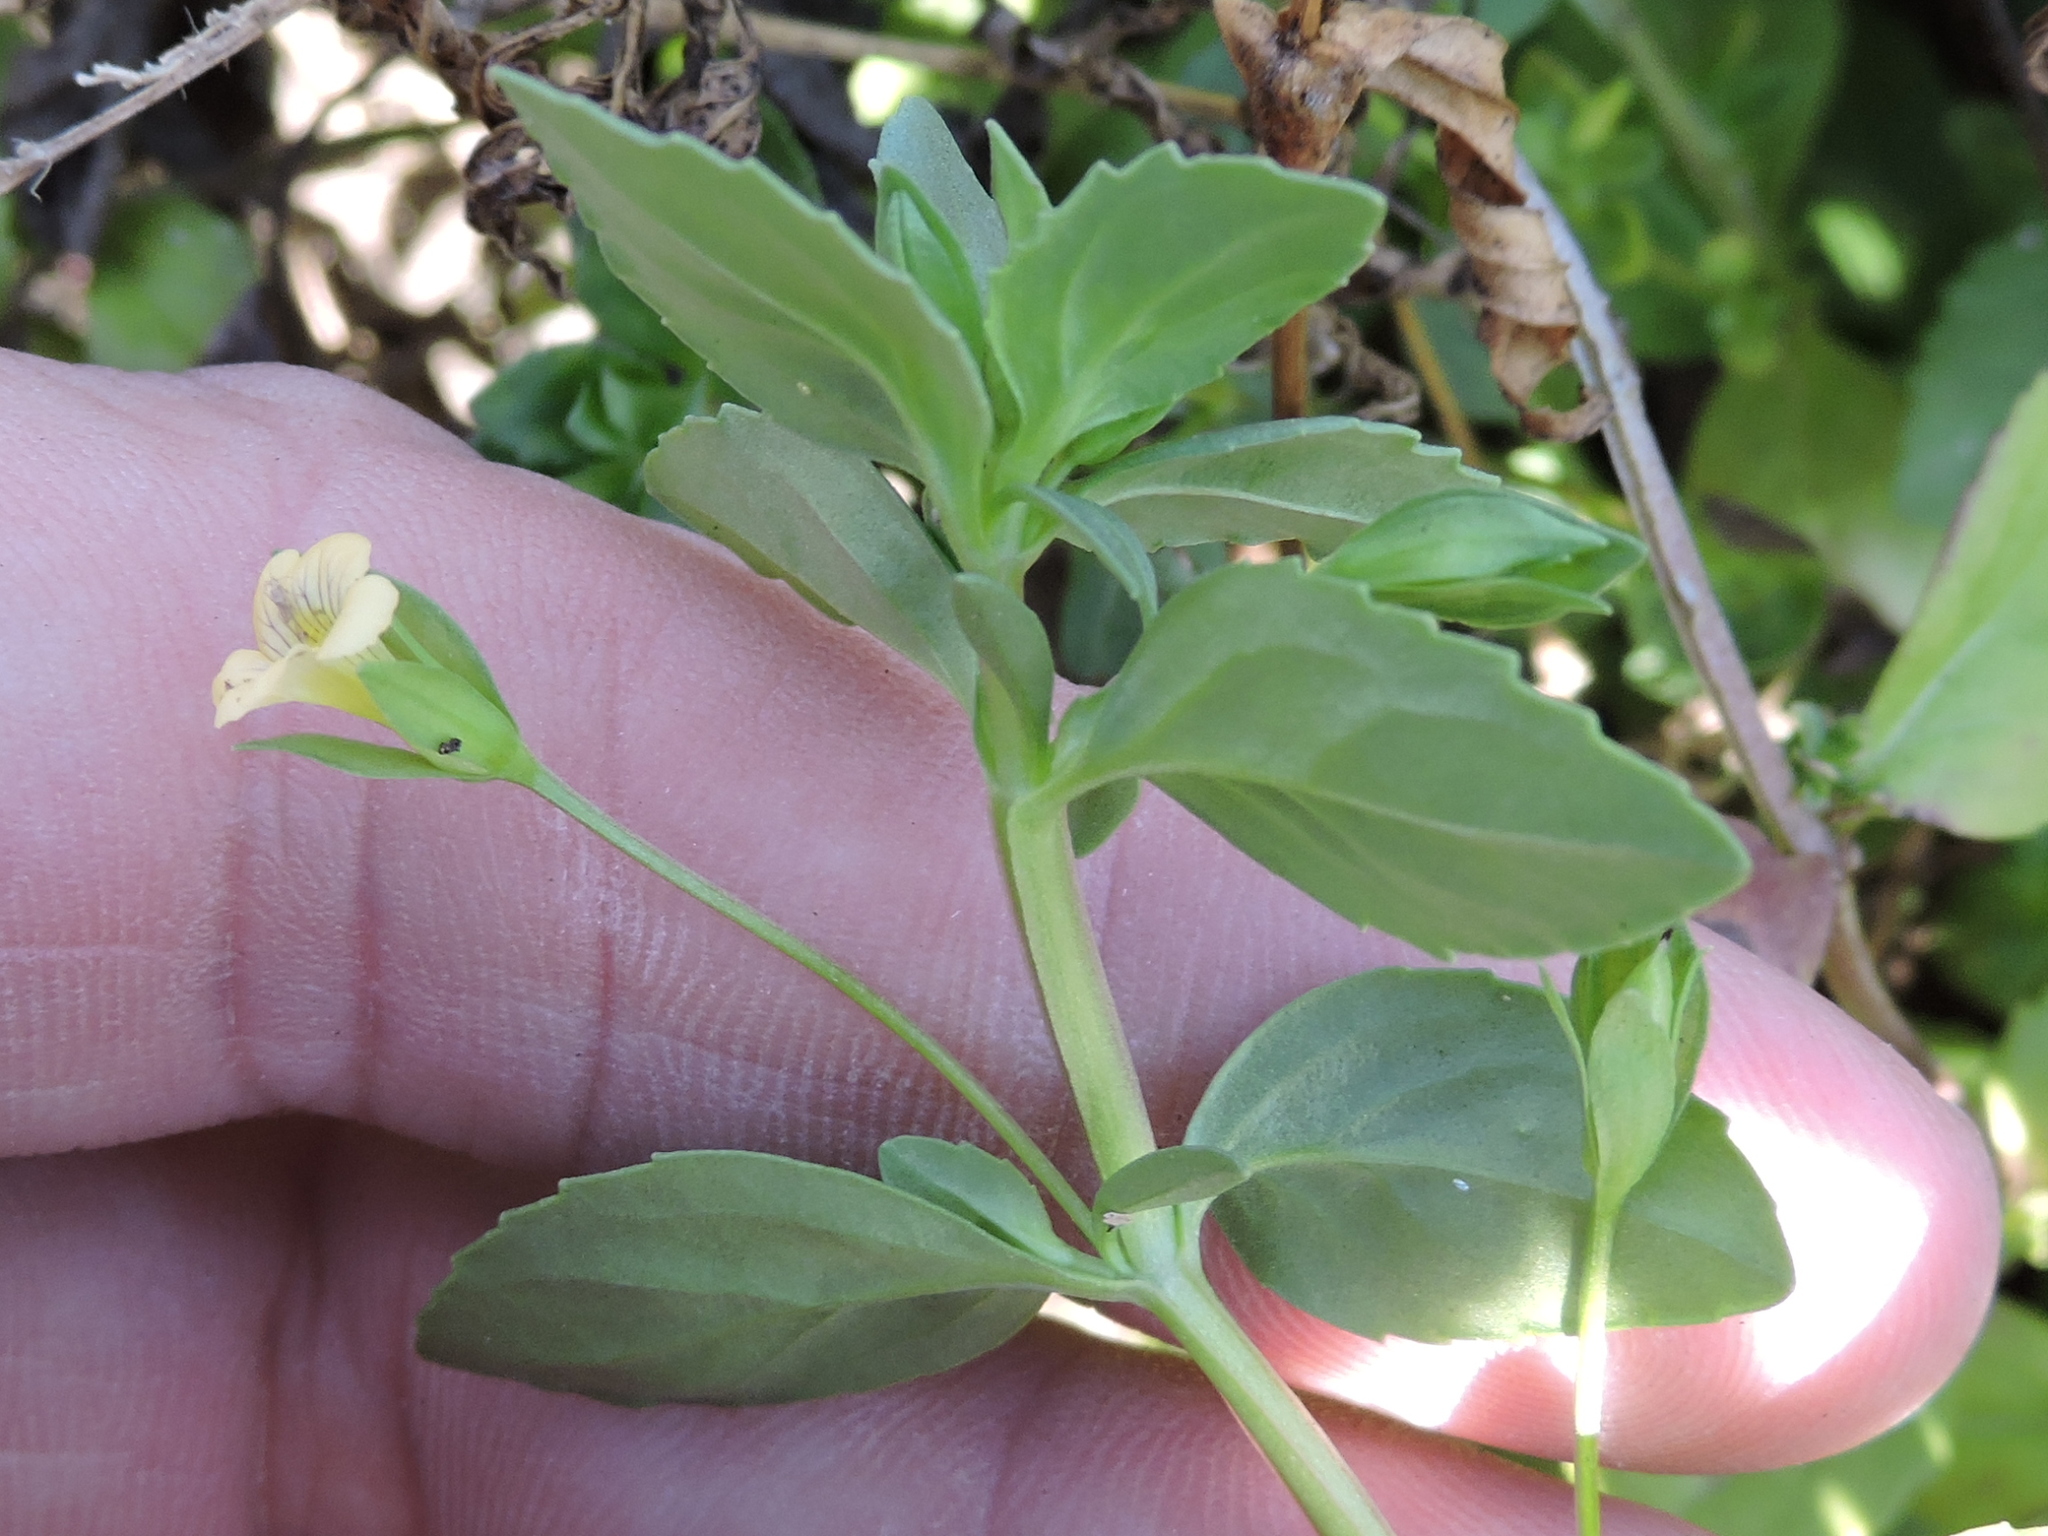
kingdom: Plantae
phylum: Tracheophyta
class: Magnoliopsida
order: Lamiales
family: Plantaginaceae
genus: Mecardonia
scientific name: Mecardonia procumbens
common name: Baby jump-up
